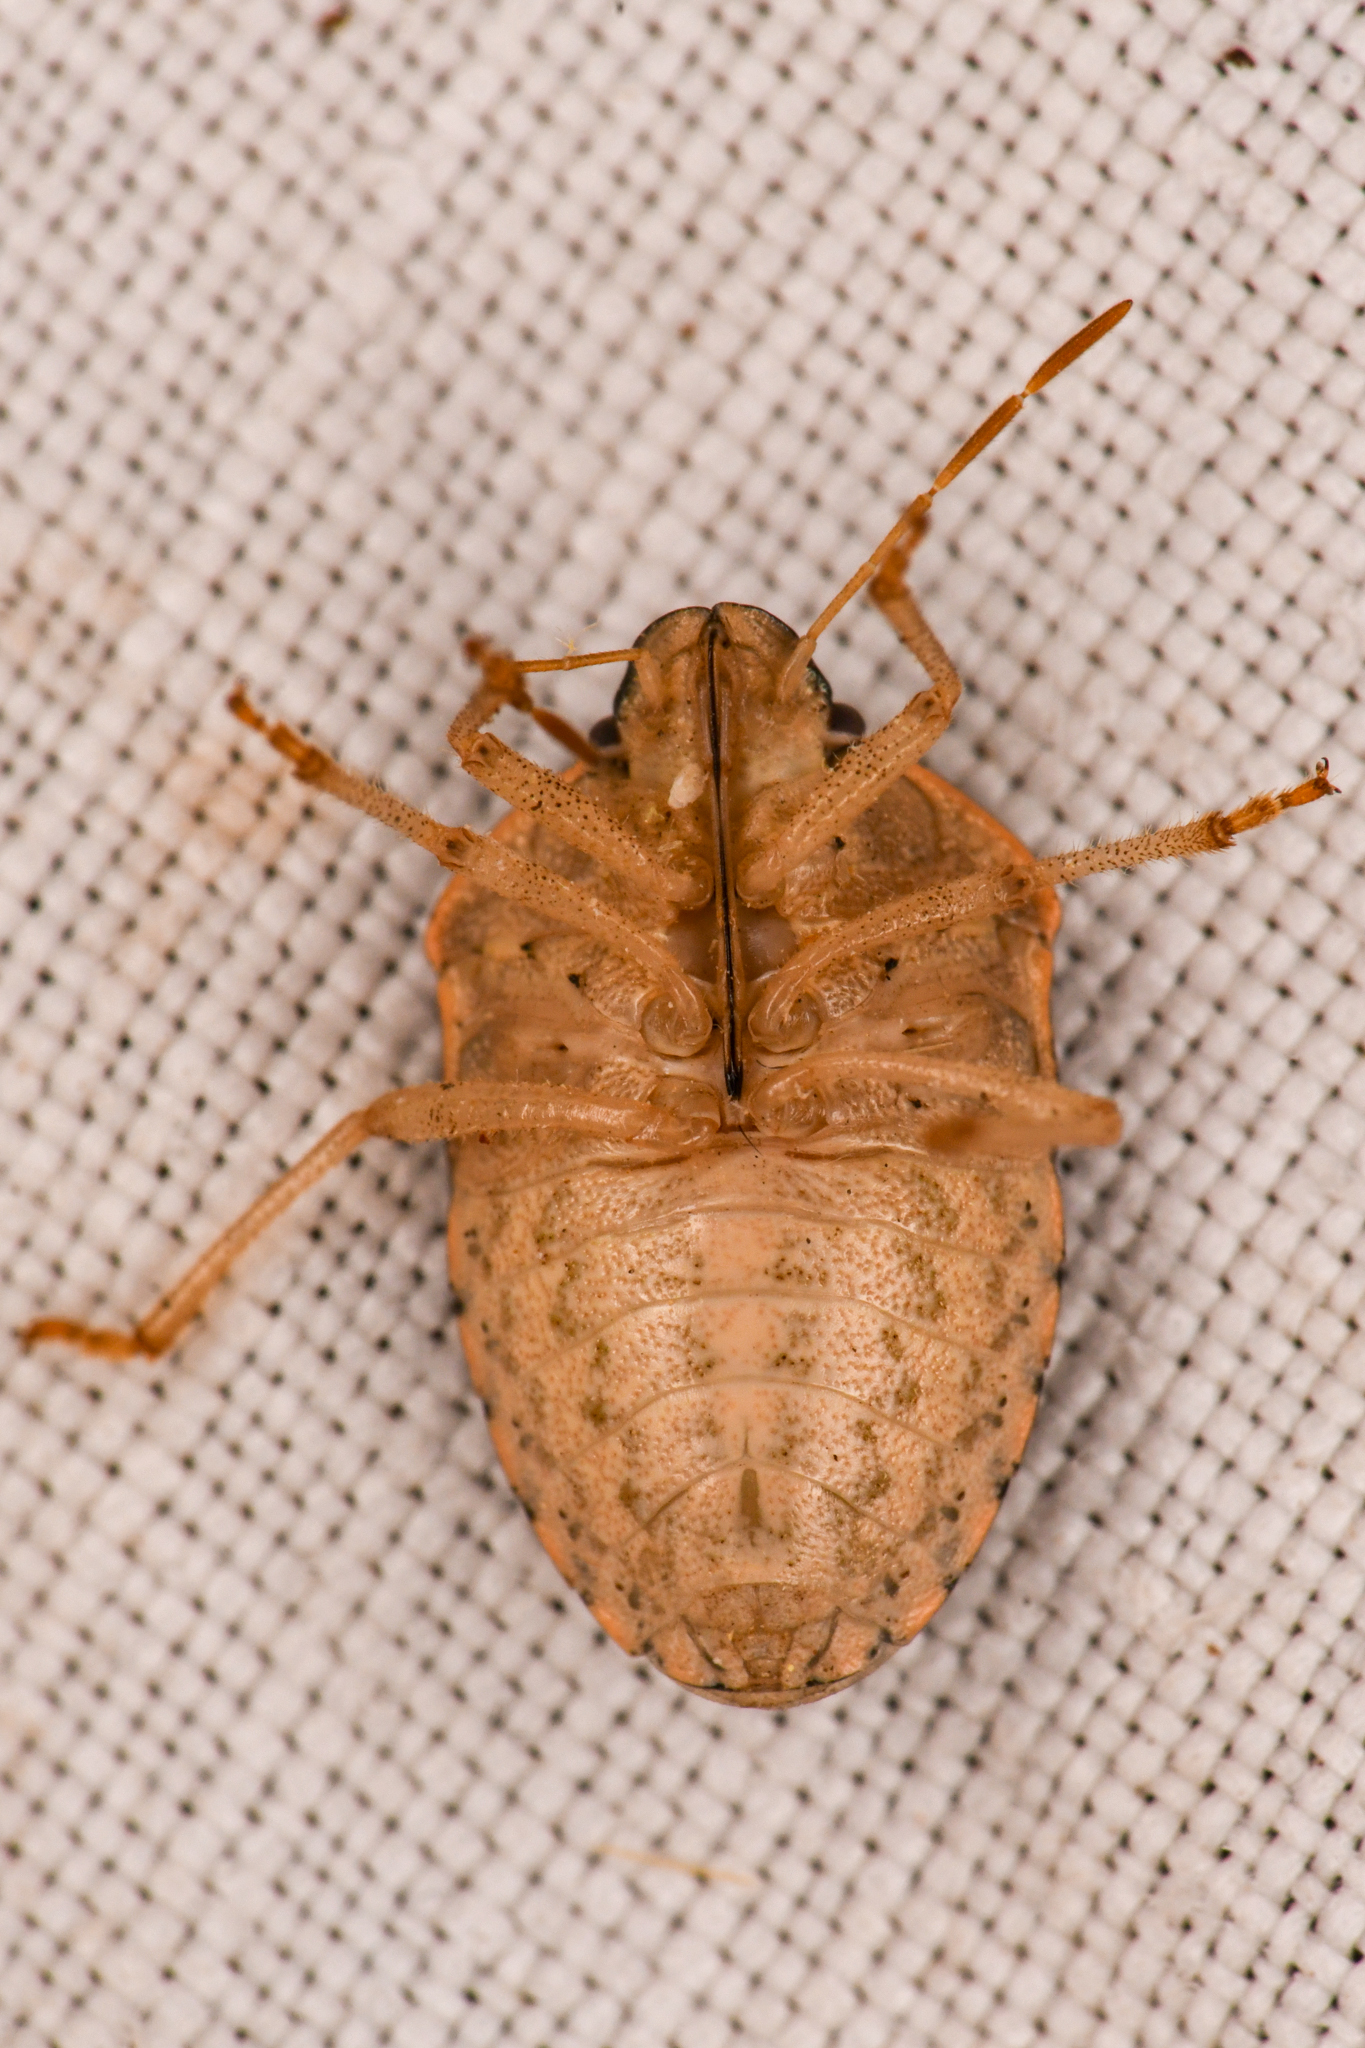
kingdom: Animalia
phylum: Arthropoda
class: Insecta
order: Hemiptera
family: Pentatomidae
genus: Holcostethus
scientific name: Holcostethus abbreviatus
